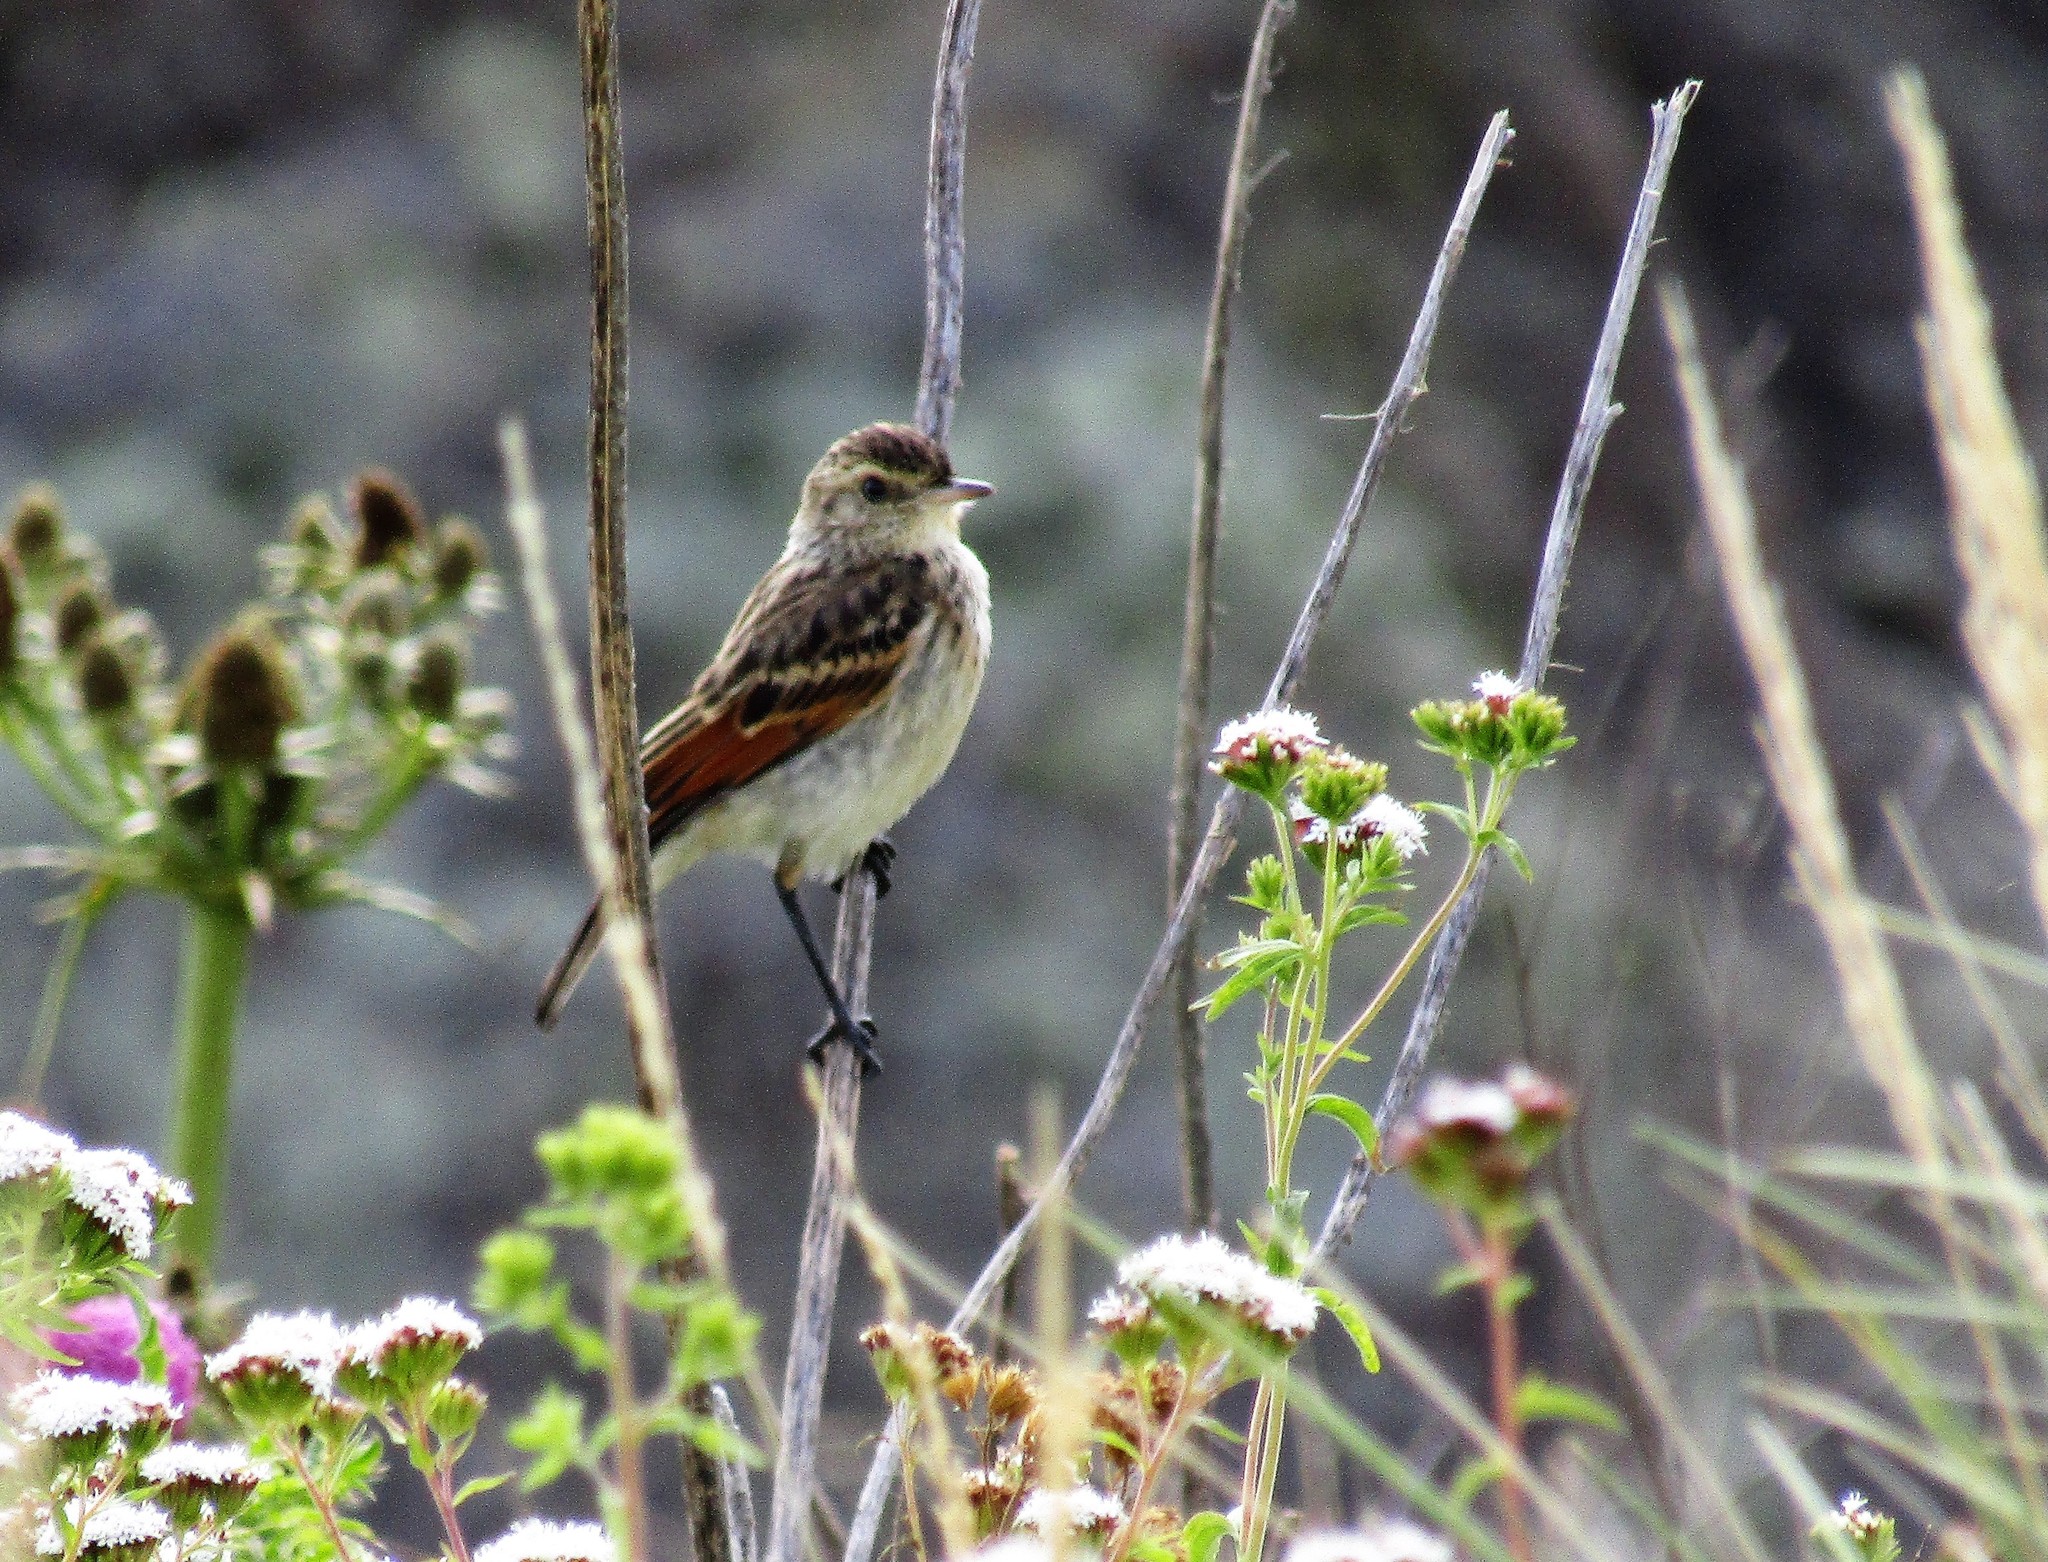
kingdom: Animalia
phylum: Chordata
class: Aves
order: Passeriformes
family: Tyrannidae
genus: Hymenops
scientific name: Hymenops perspicillatus
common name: Spectacled tyrant
